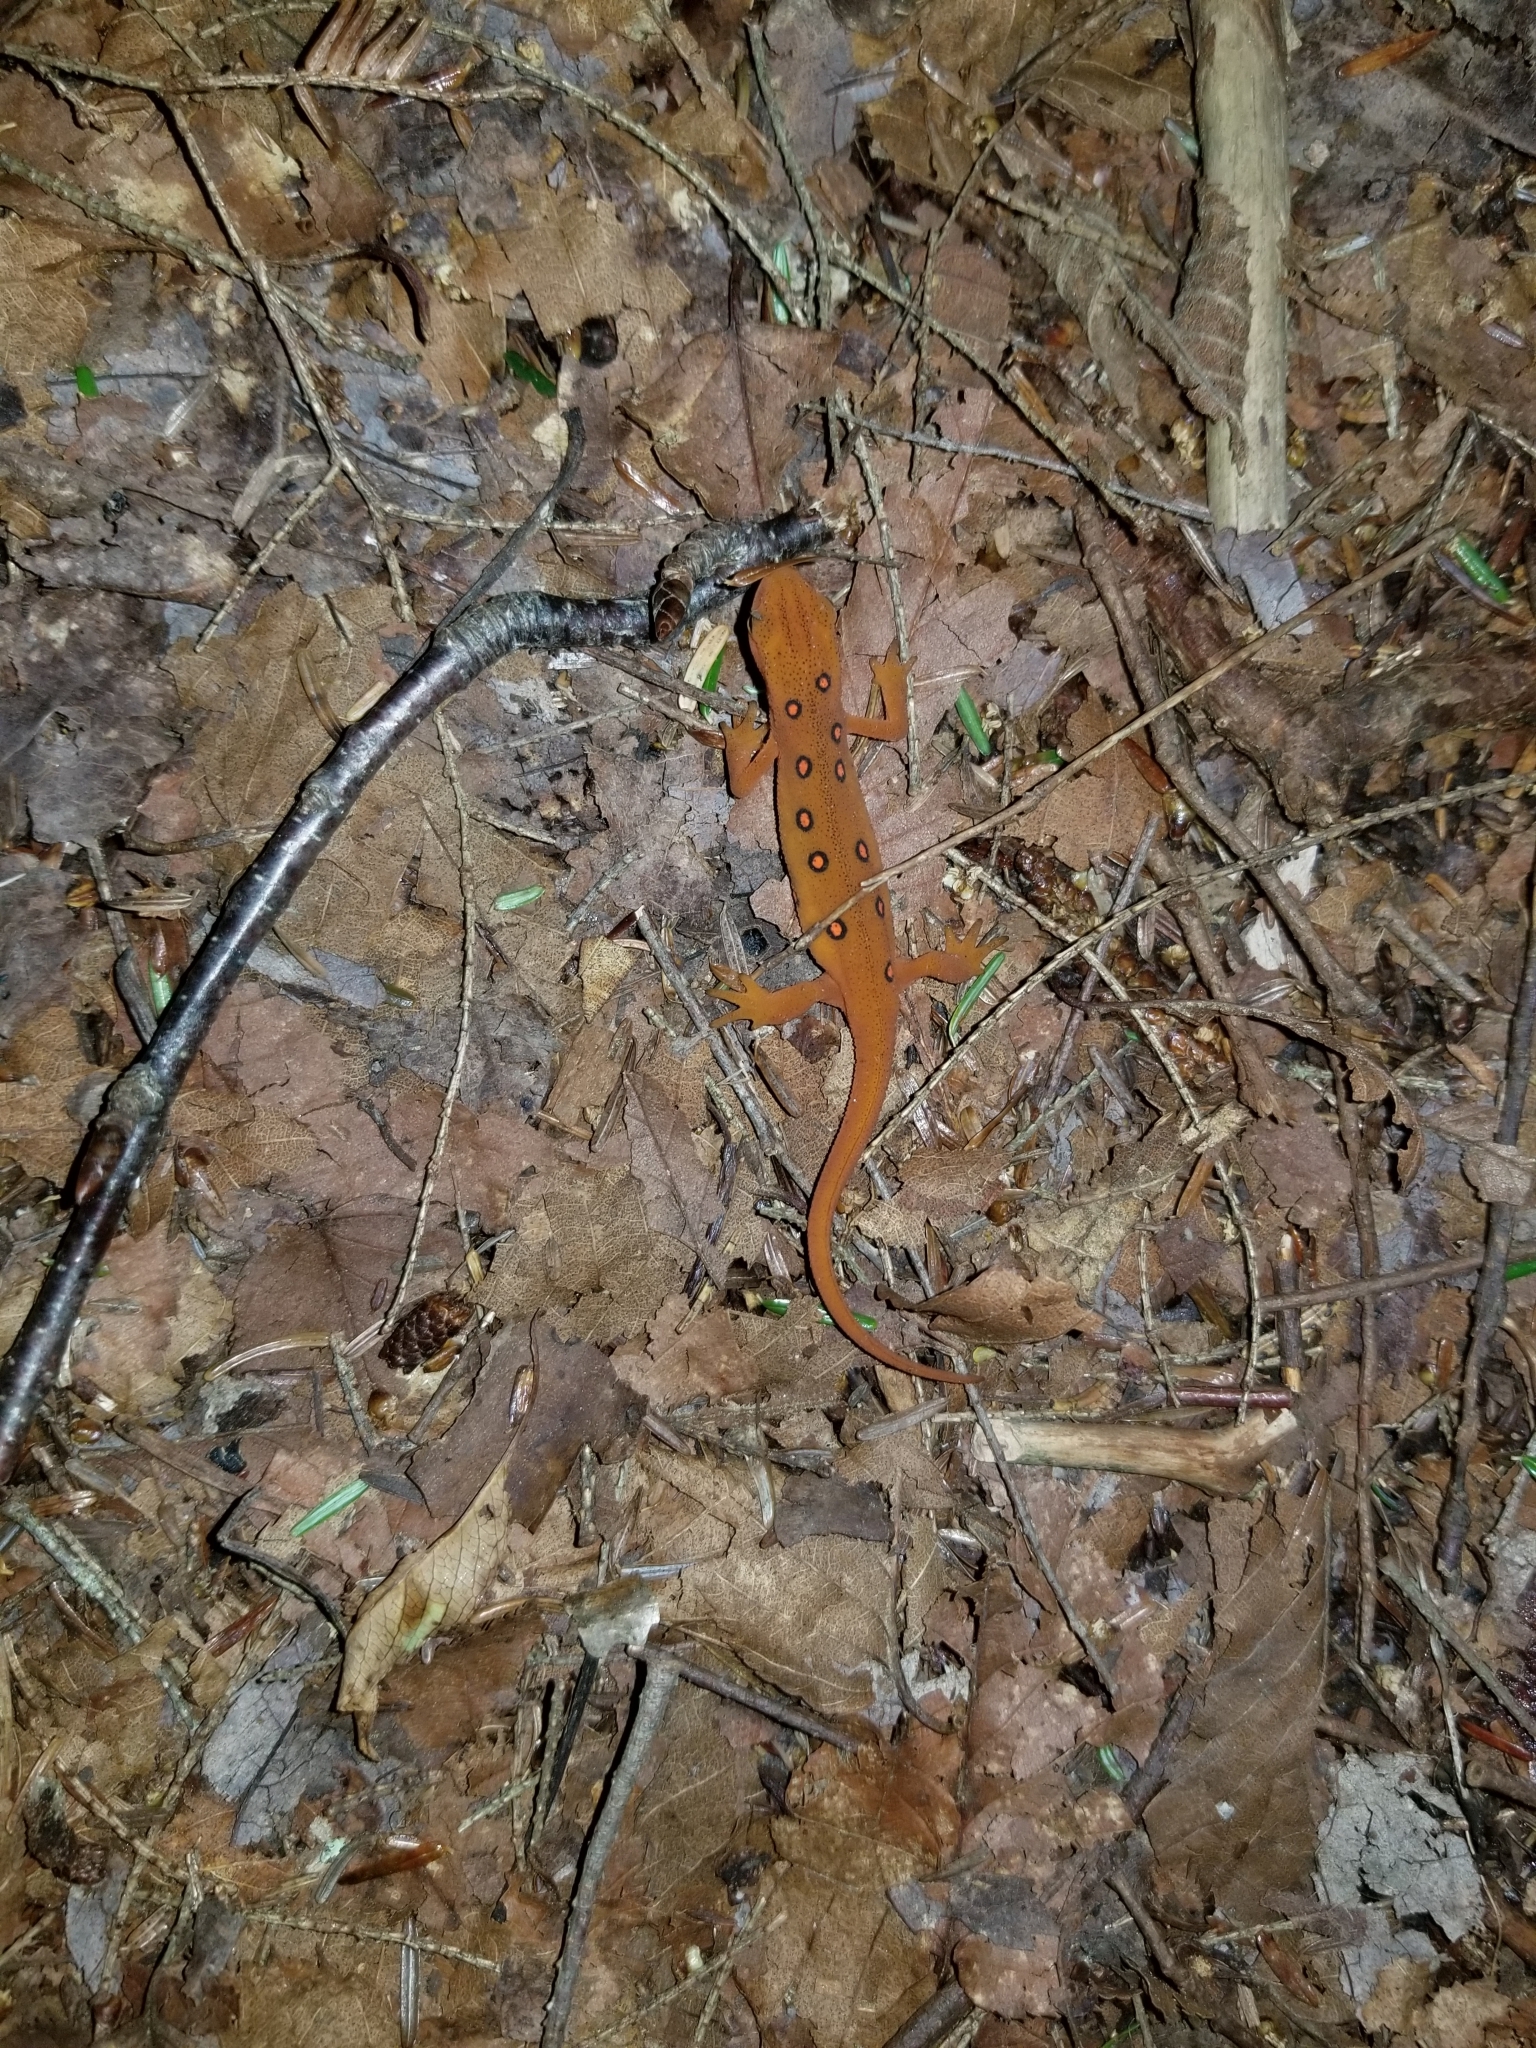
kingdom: Animalia
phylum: Chordata
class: Amphibia
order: Caudata
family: Salamandridae
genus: Notophthalmus
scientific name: Notophthalmus viridescens
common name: Eastern newt
